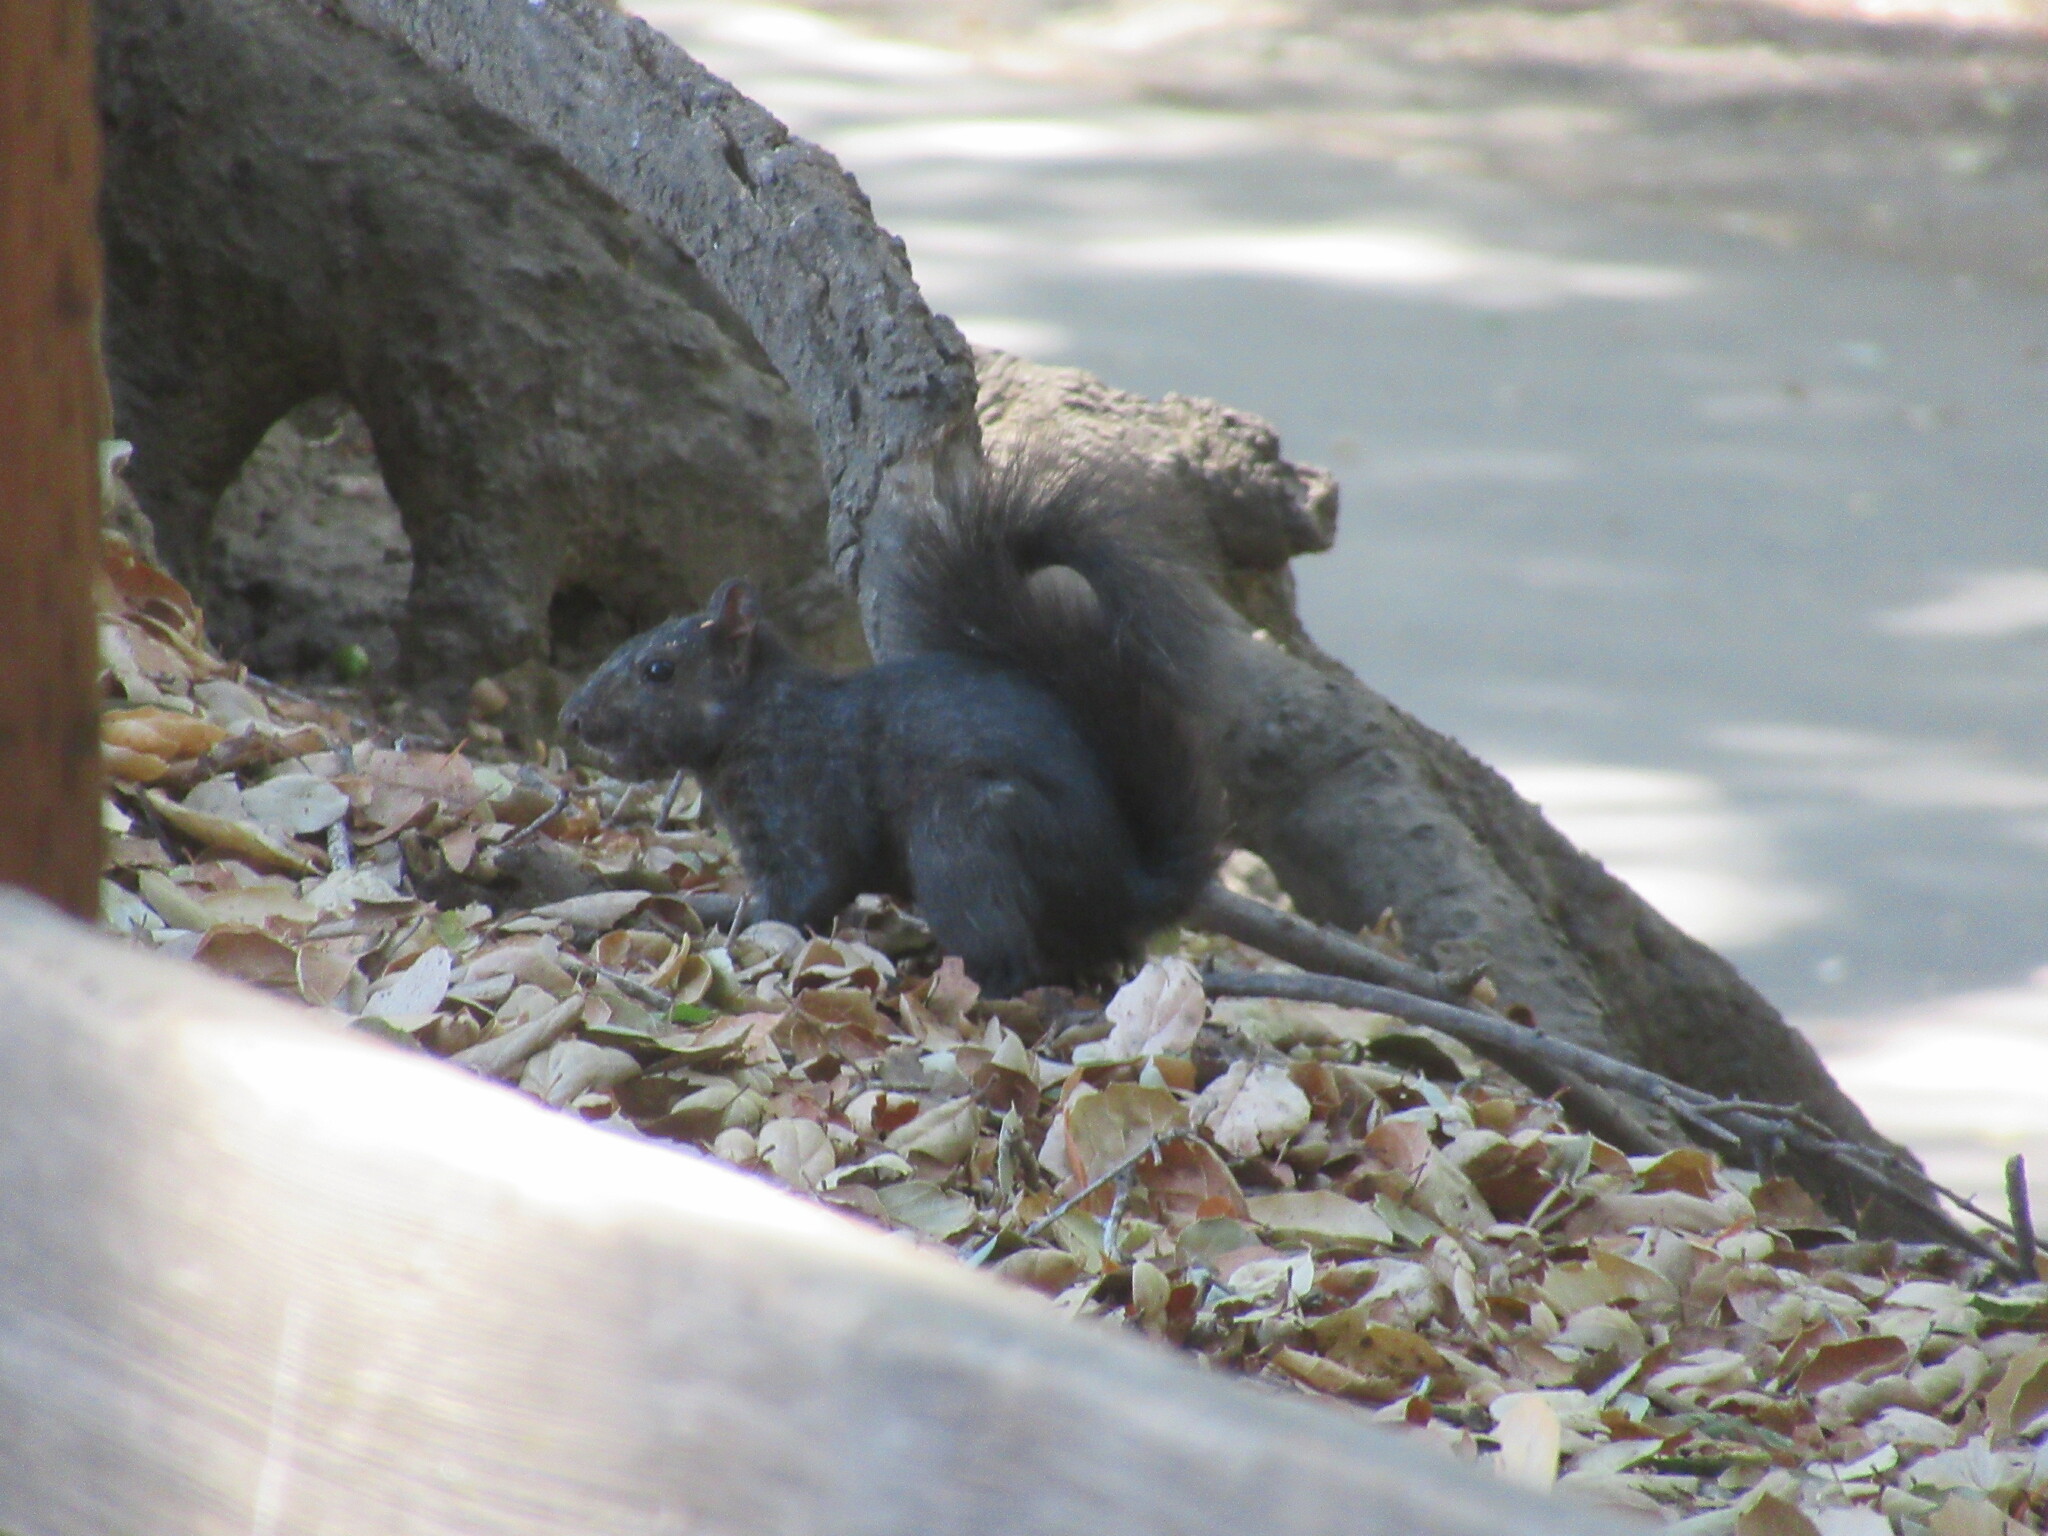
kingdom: Animalia
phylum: Chordata
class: Mammalia
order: Rodentia
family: Sciuridae
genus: Sciurus
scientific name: Sciurus carolinensis
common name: Eastern gray squirrel
